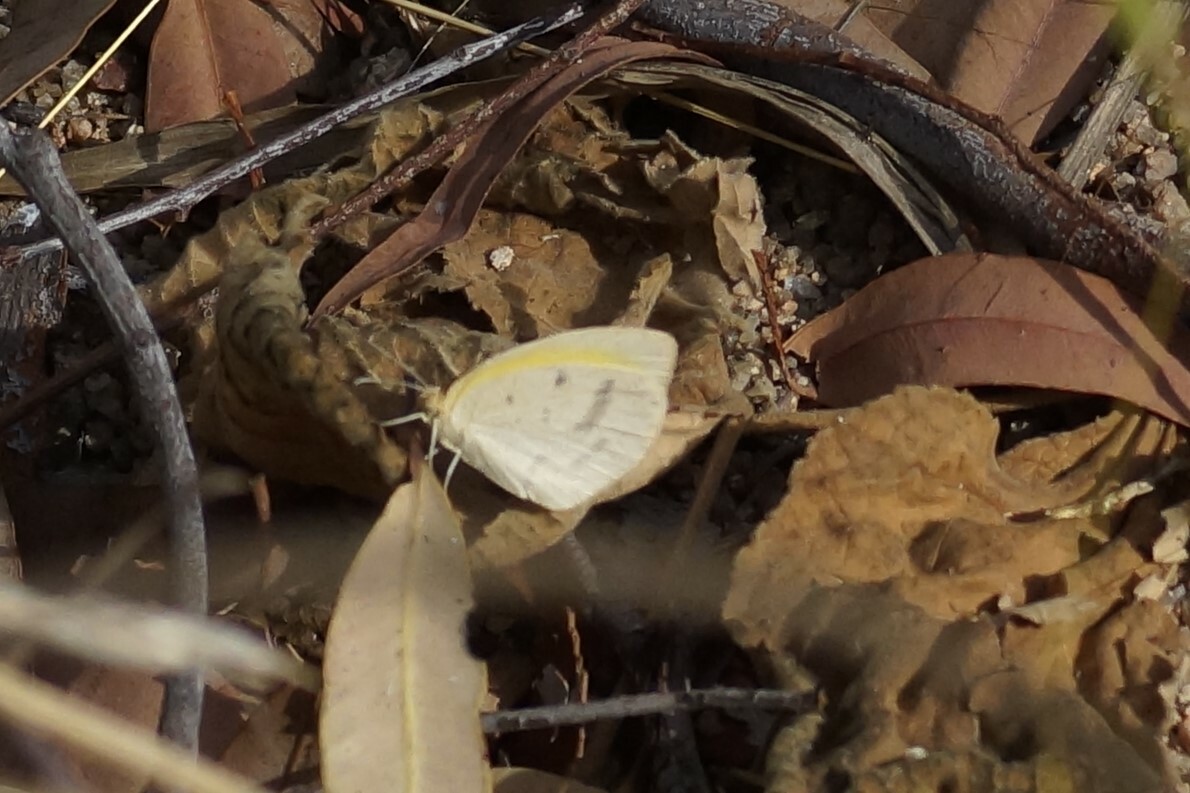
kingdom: Animalia
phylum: Arthropoda
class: Insecta
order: Lepidoptera
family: Pieridae
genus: Eurema
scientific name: Eurema herla
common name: Macleay's grass yellow
